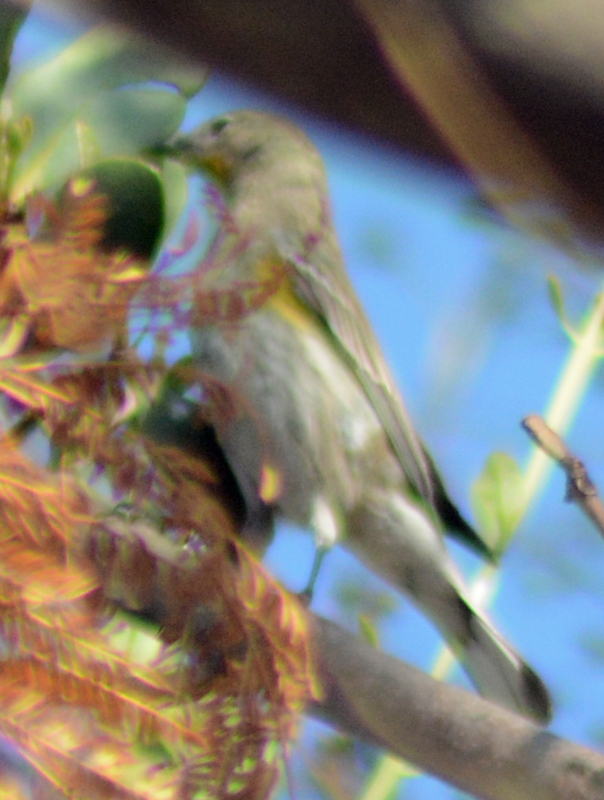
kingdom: Animalia
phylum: Chordata
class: Aves
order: Passeriformes
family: Parulidae
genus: Setophaga
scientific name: Setophaga coronata
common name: Myrtle warbler
